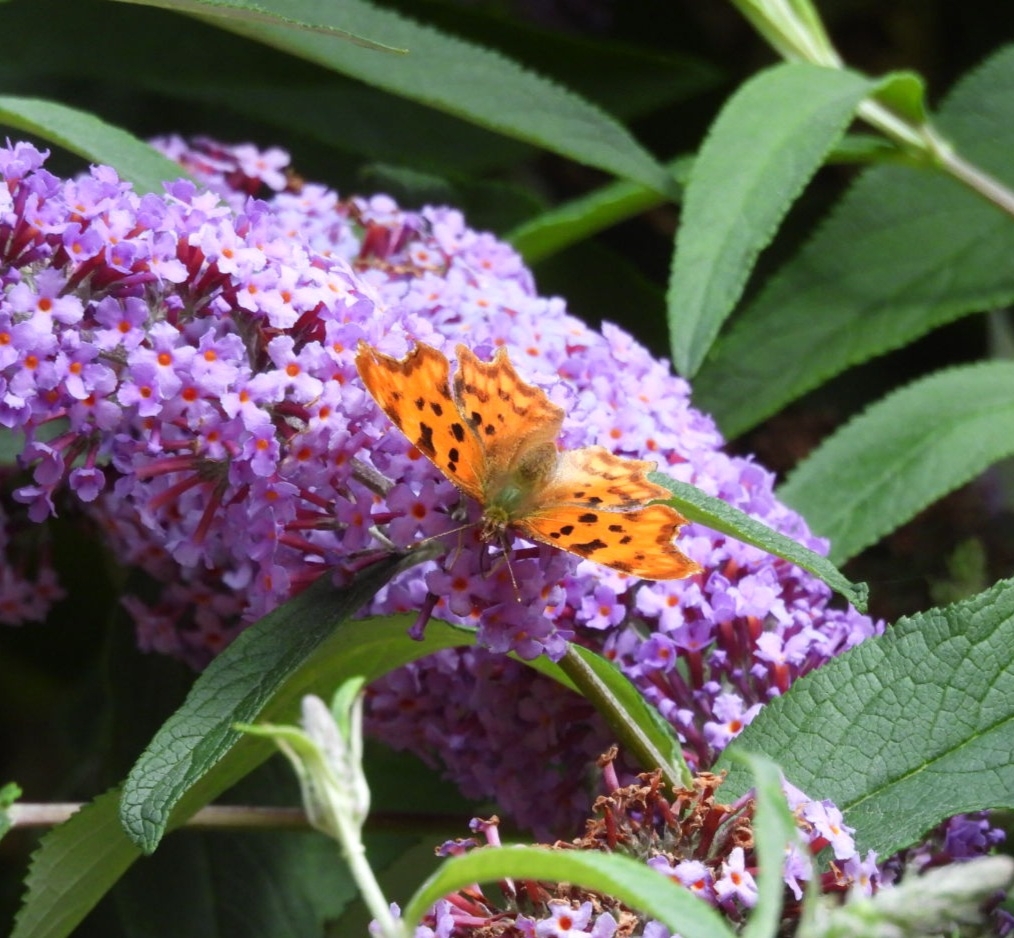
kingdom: Animalia
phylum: Arthropoda
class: Insecta
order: Lepidoptera
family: Nymphalidae
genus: Polygonia
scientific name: Polygonia c-album
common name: Comma
